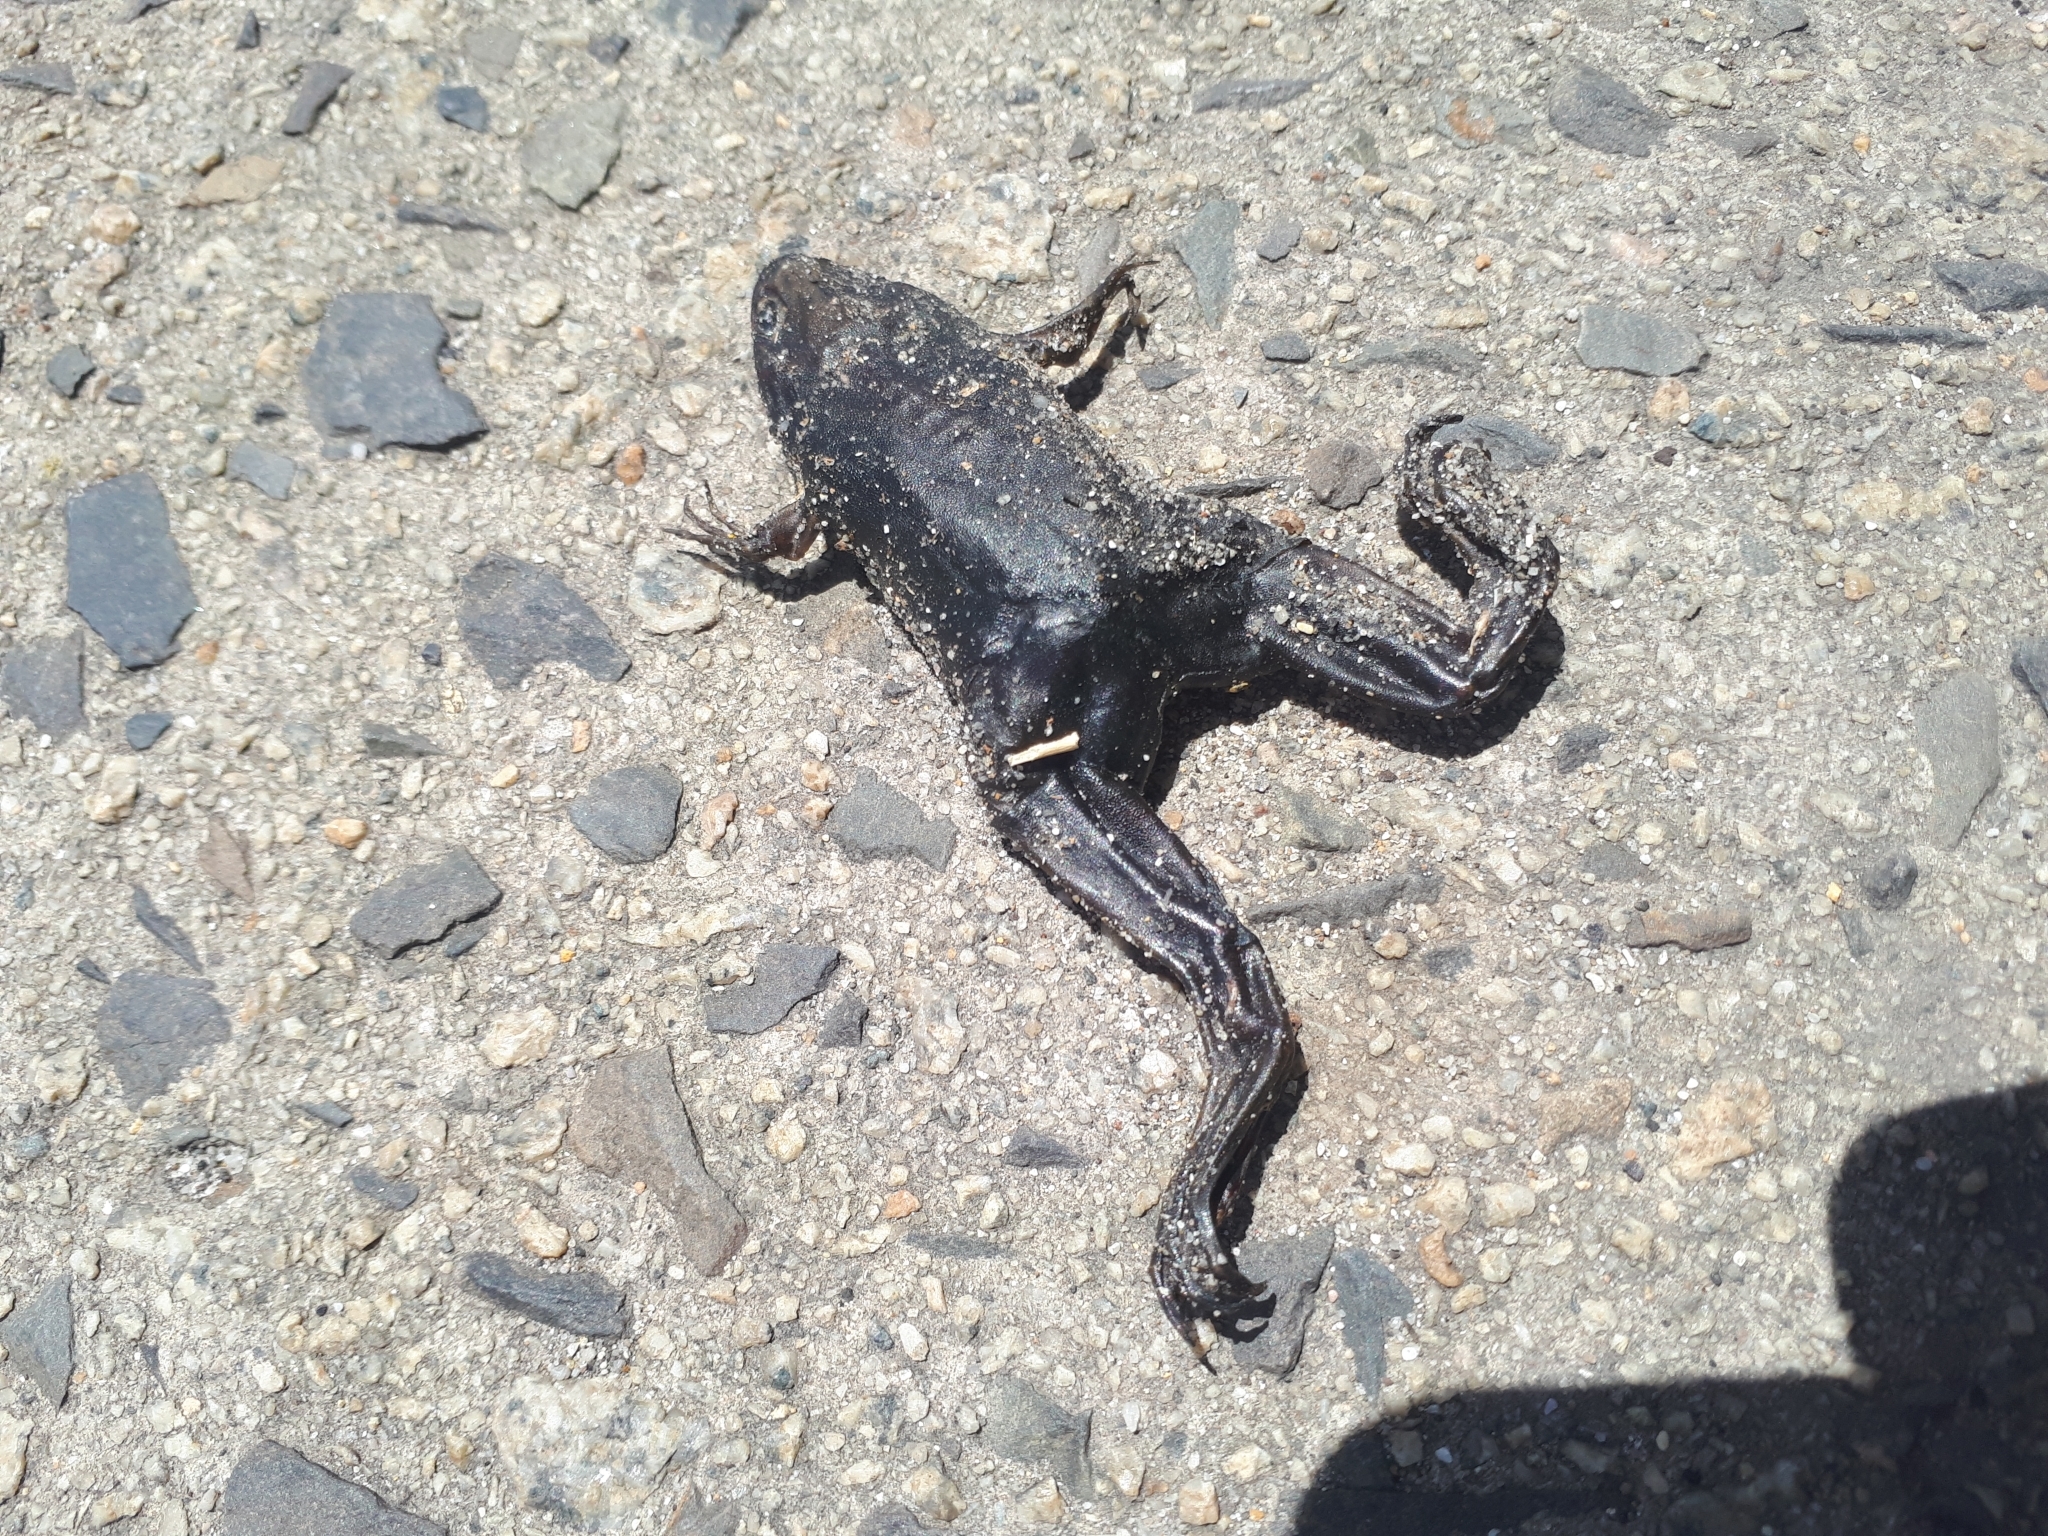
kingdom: Animalia
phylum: Chordata
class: Amphibia
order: Anura
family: Pipidae
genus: Xenopus
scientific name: Xenopus laevis
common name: African clawed frog
